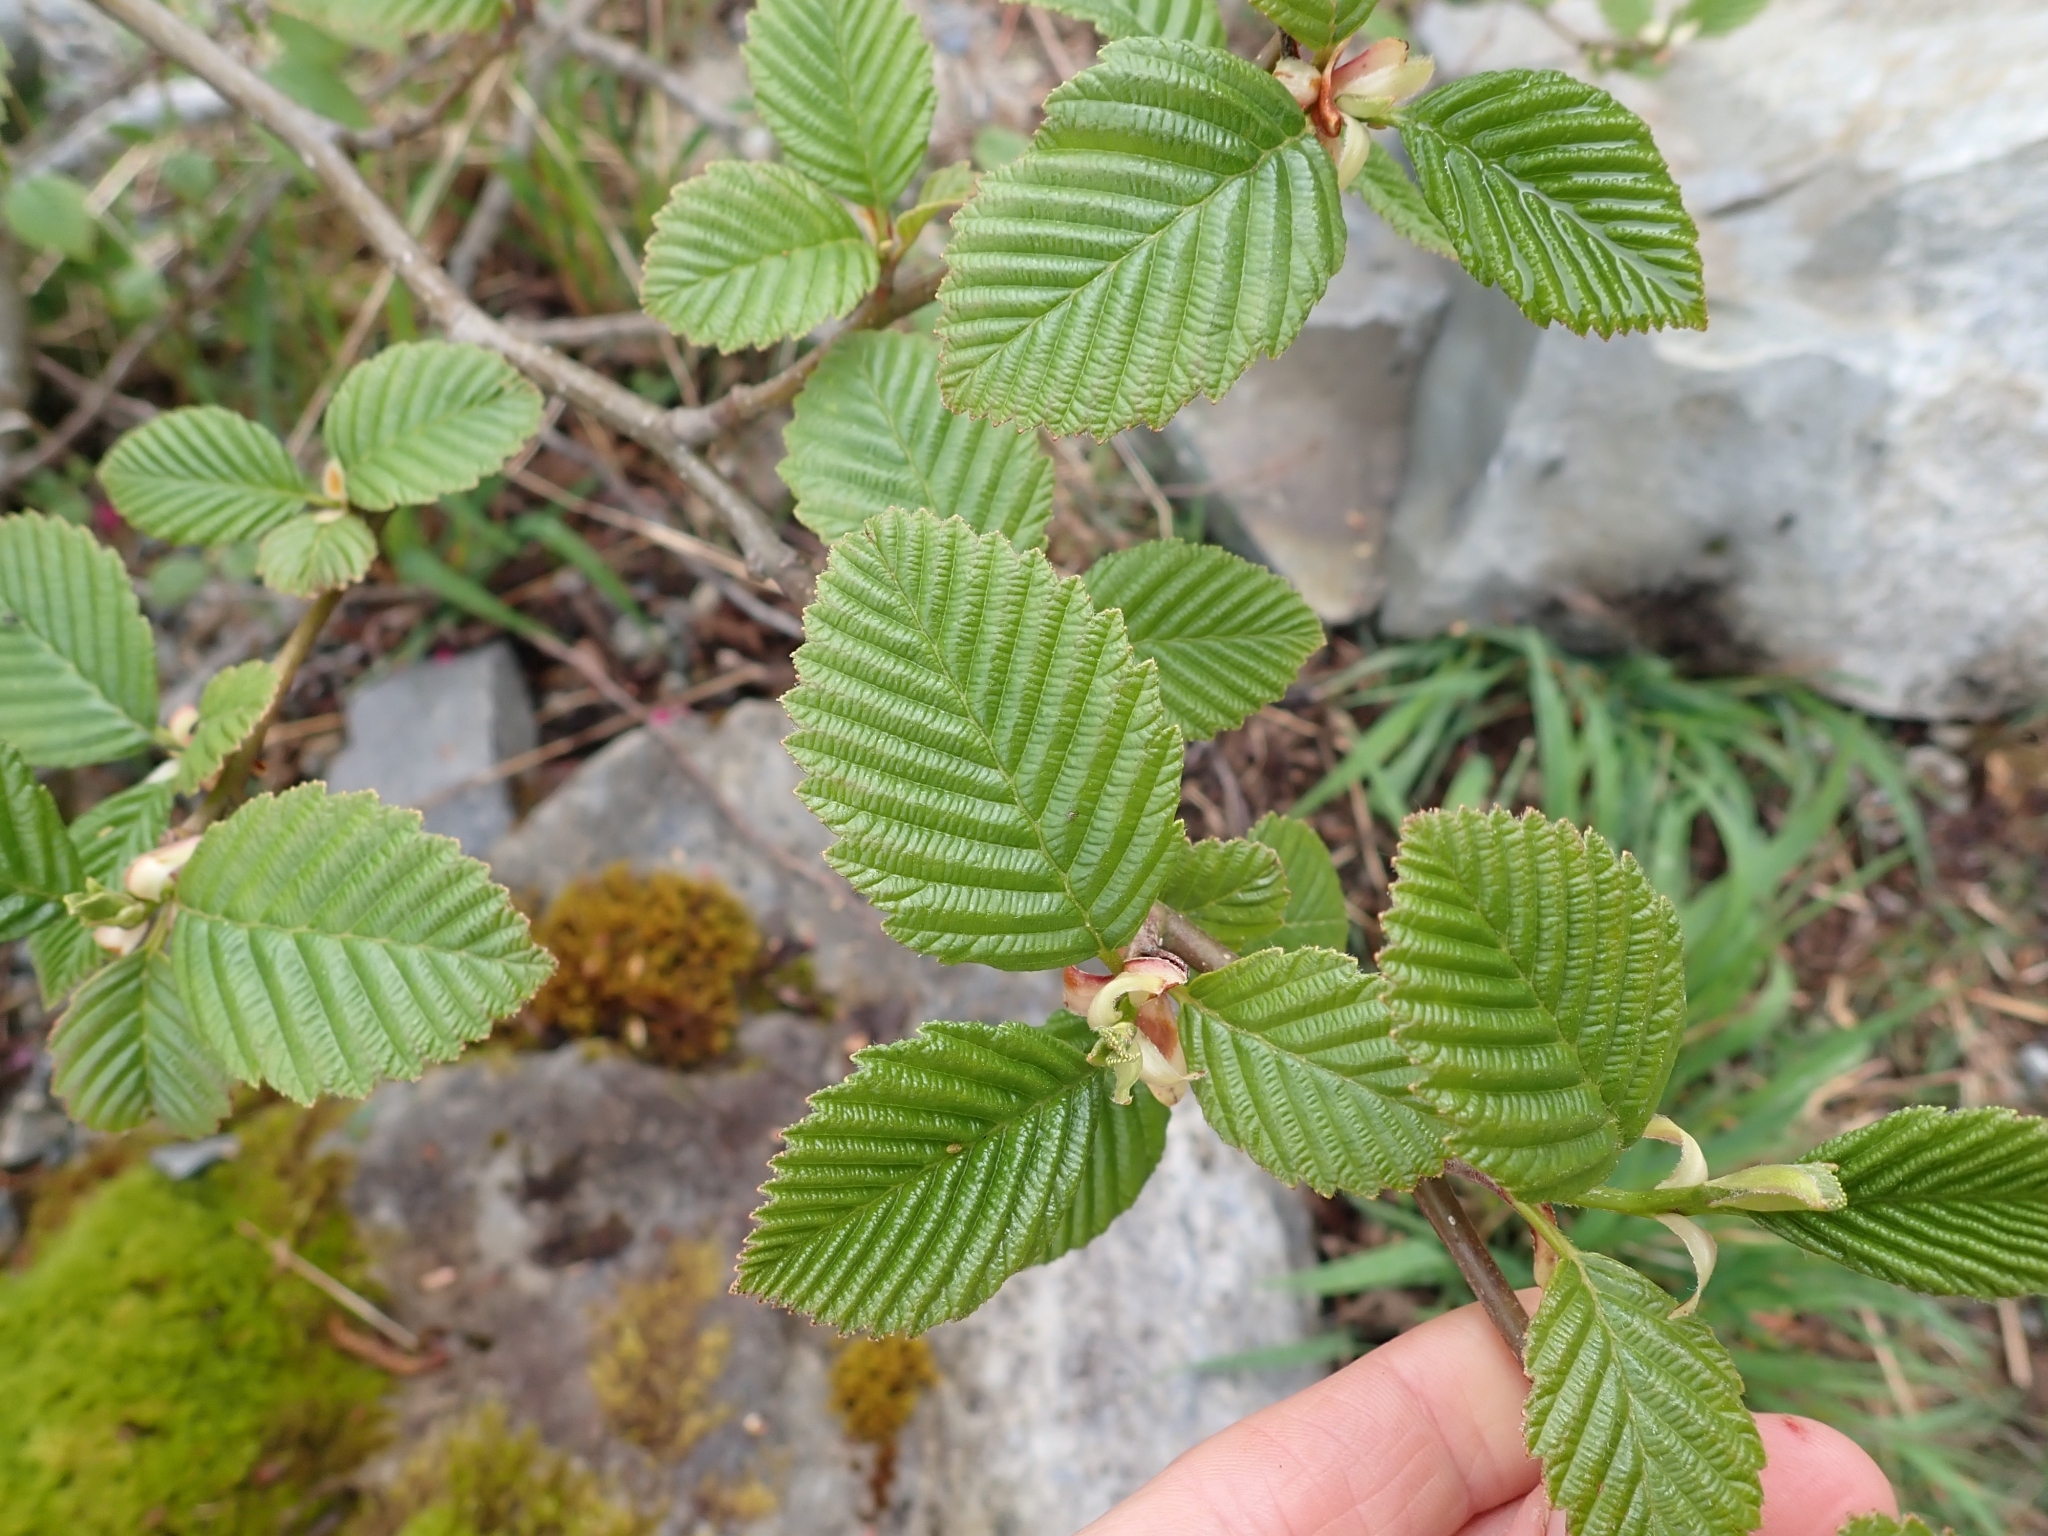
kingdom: Plantae
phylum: Tracheophyta
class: Magnoliopsida
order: Fagales
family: Betulaceae
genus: Alnus
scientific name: Alnus rubra
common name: Red alder
